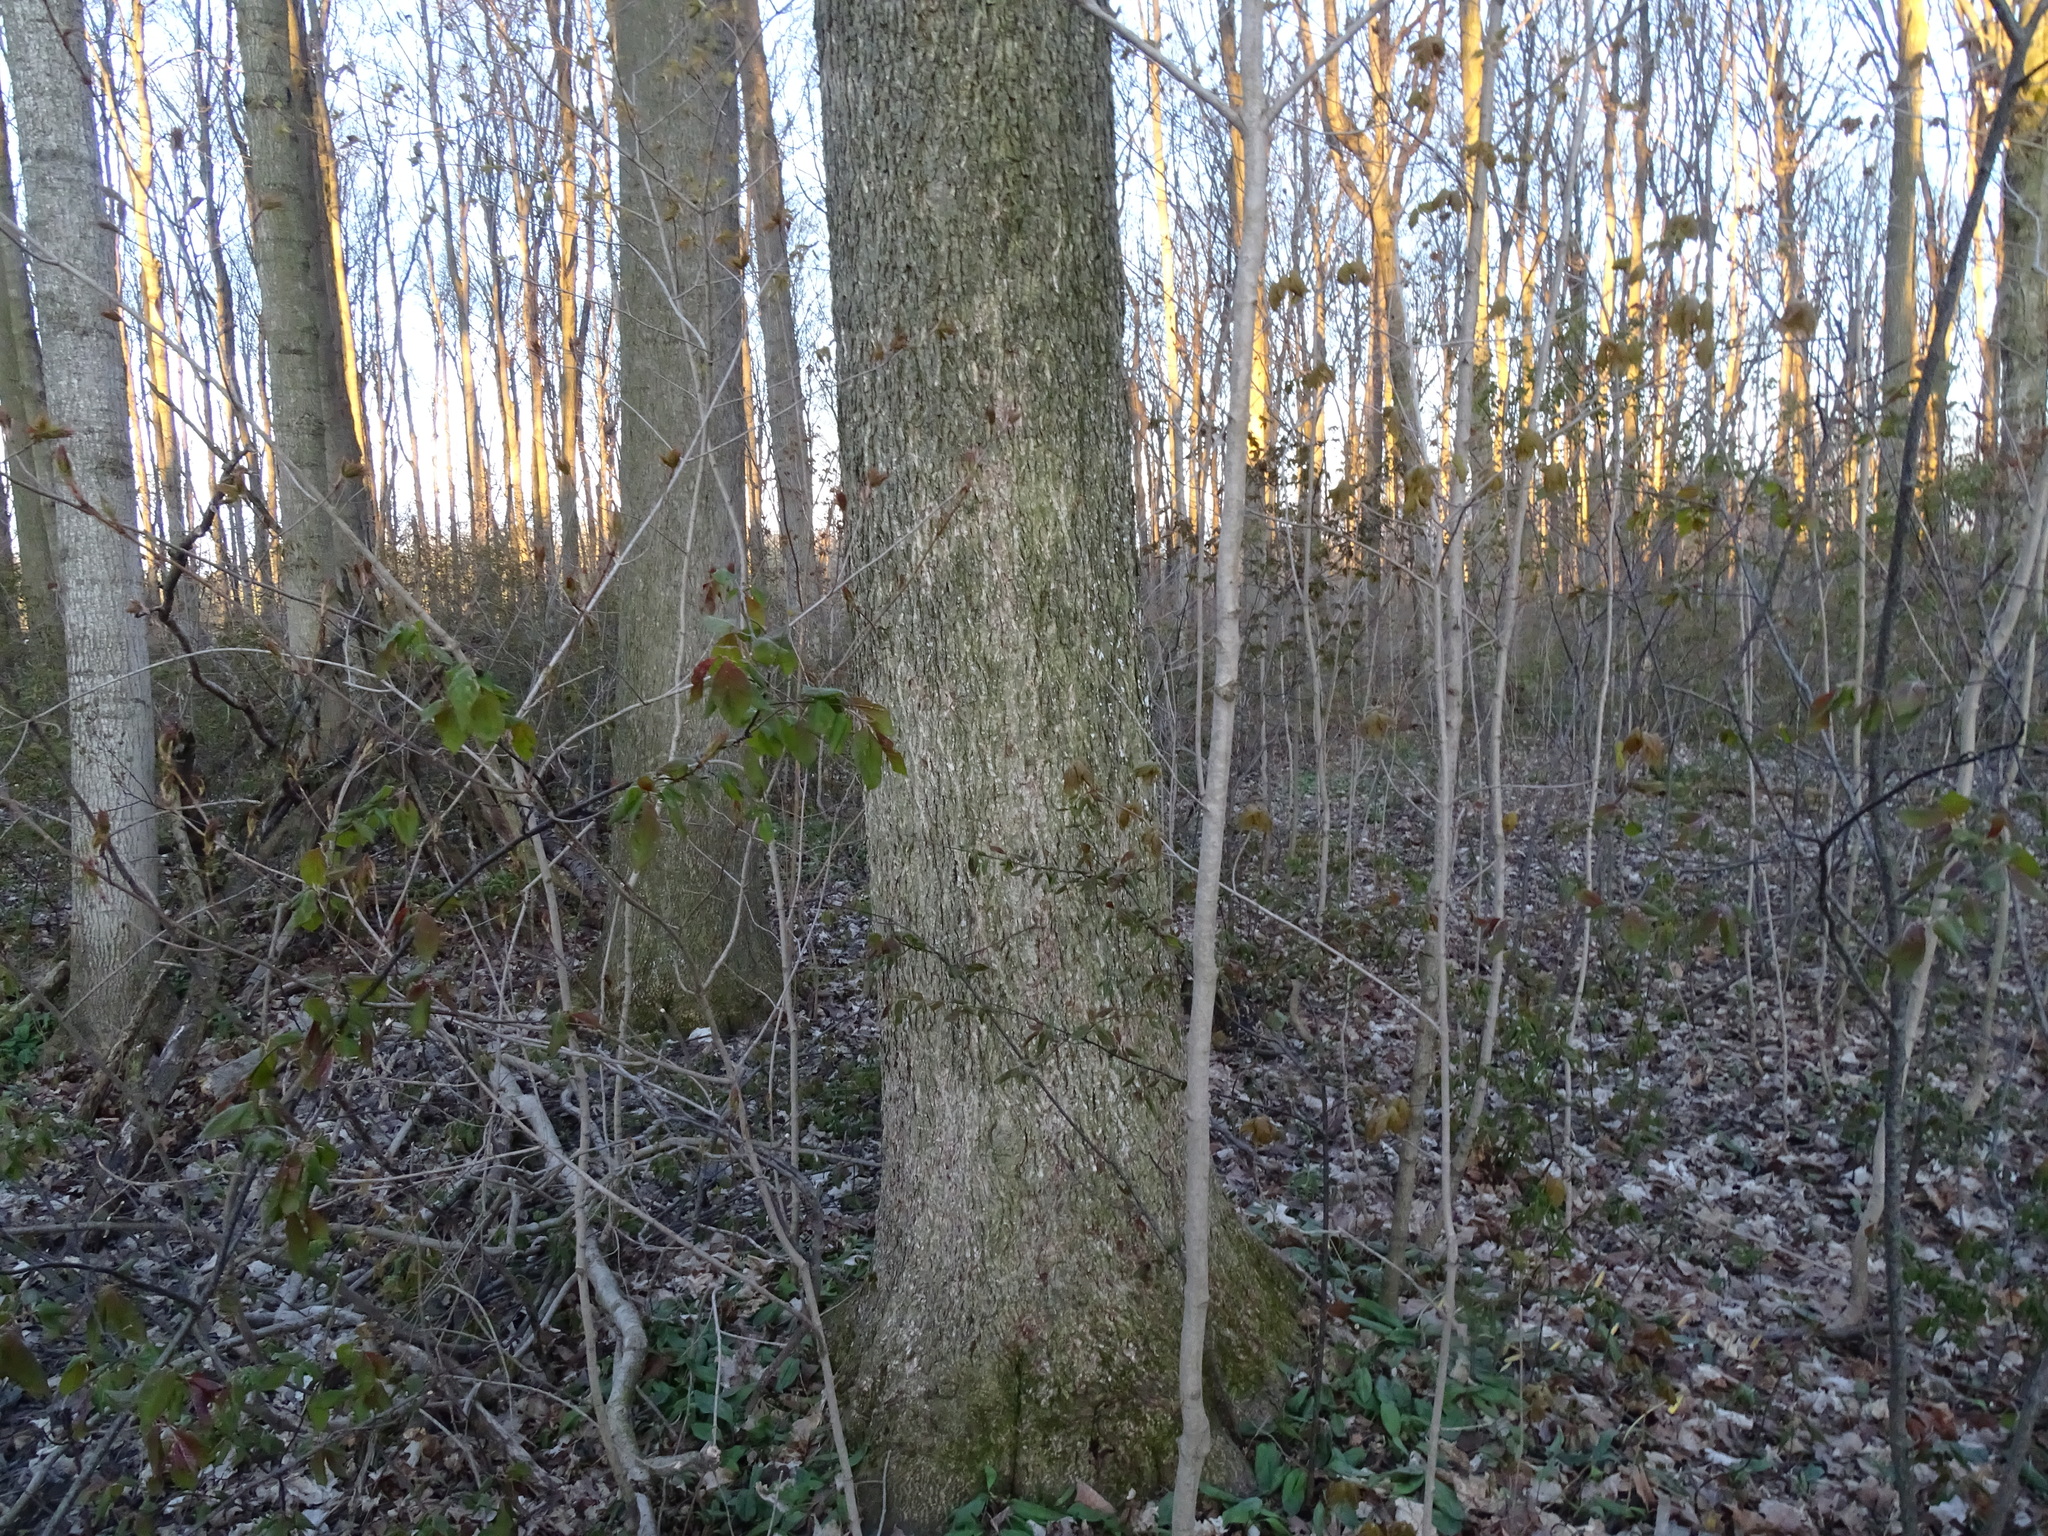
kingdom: Plantae
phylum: Tracheophyta
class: Magnoliopsida
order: Fagales
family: Juglandaceae
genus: Carya
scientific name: Carya cordiformis
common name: Bitternut hickory
